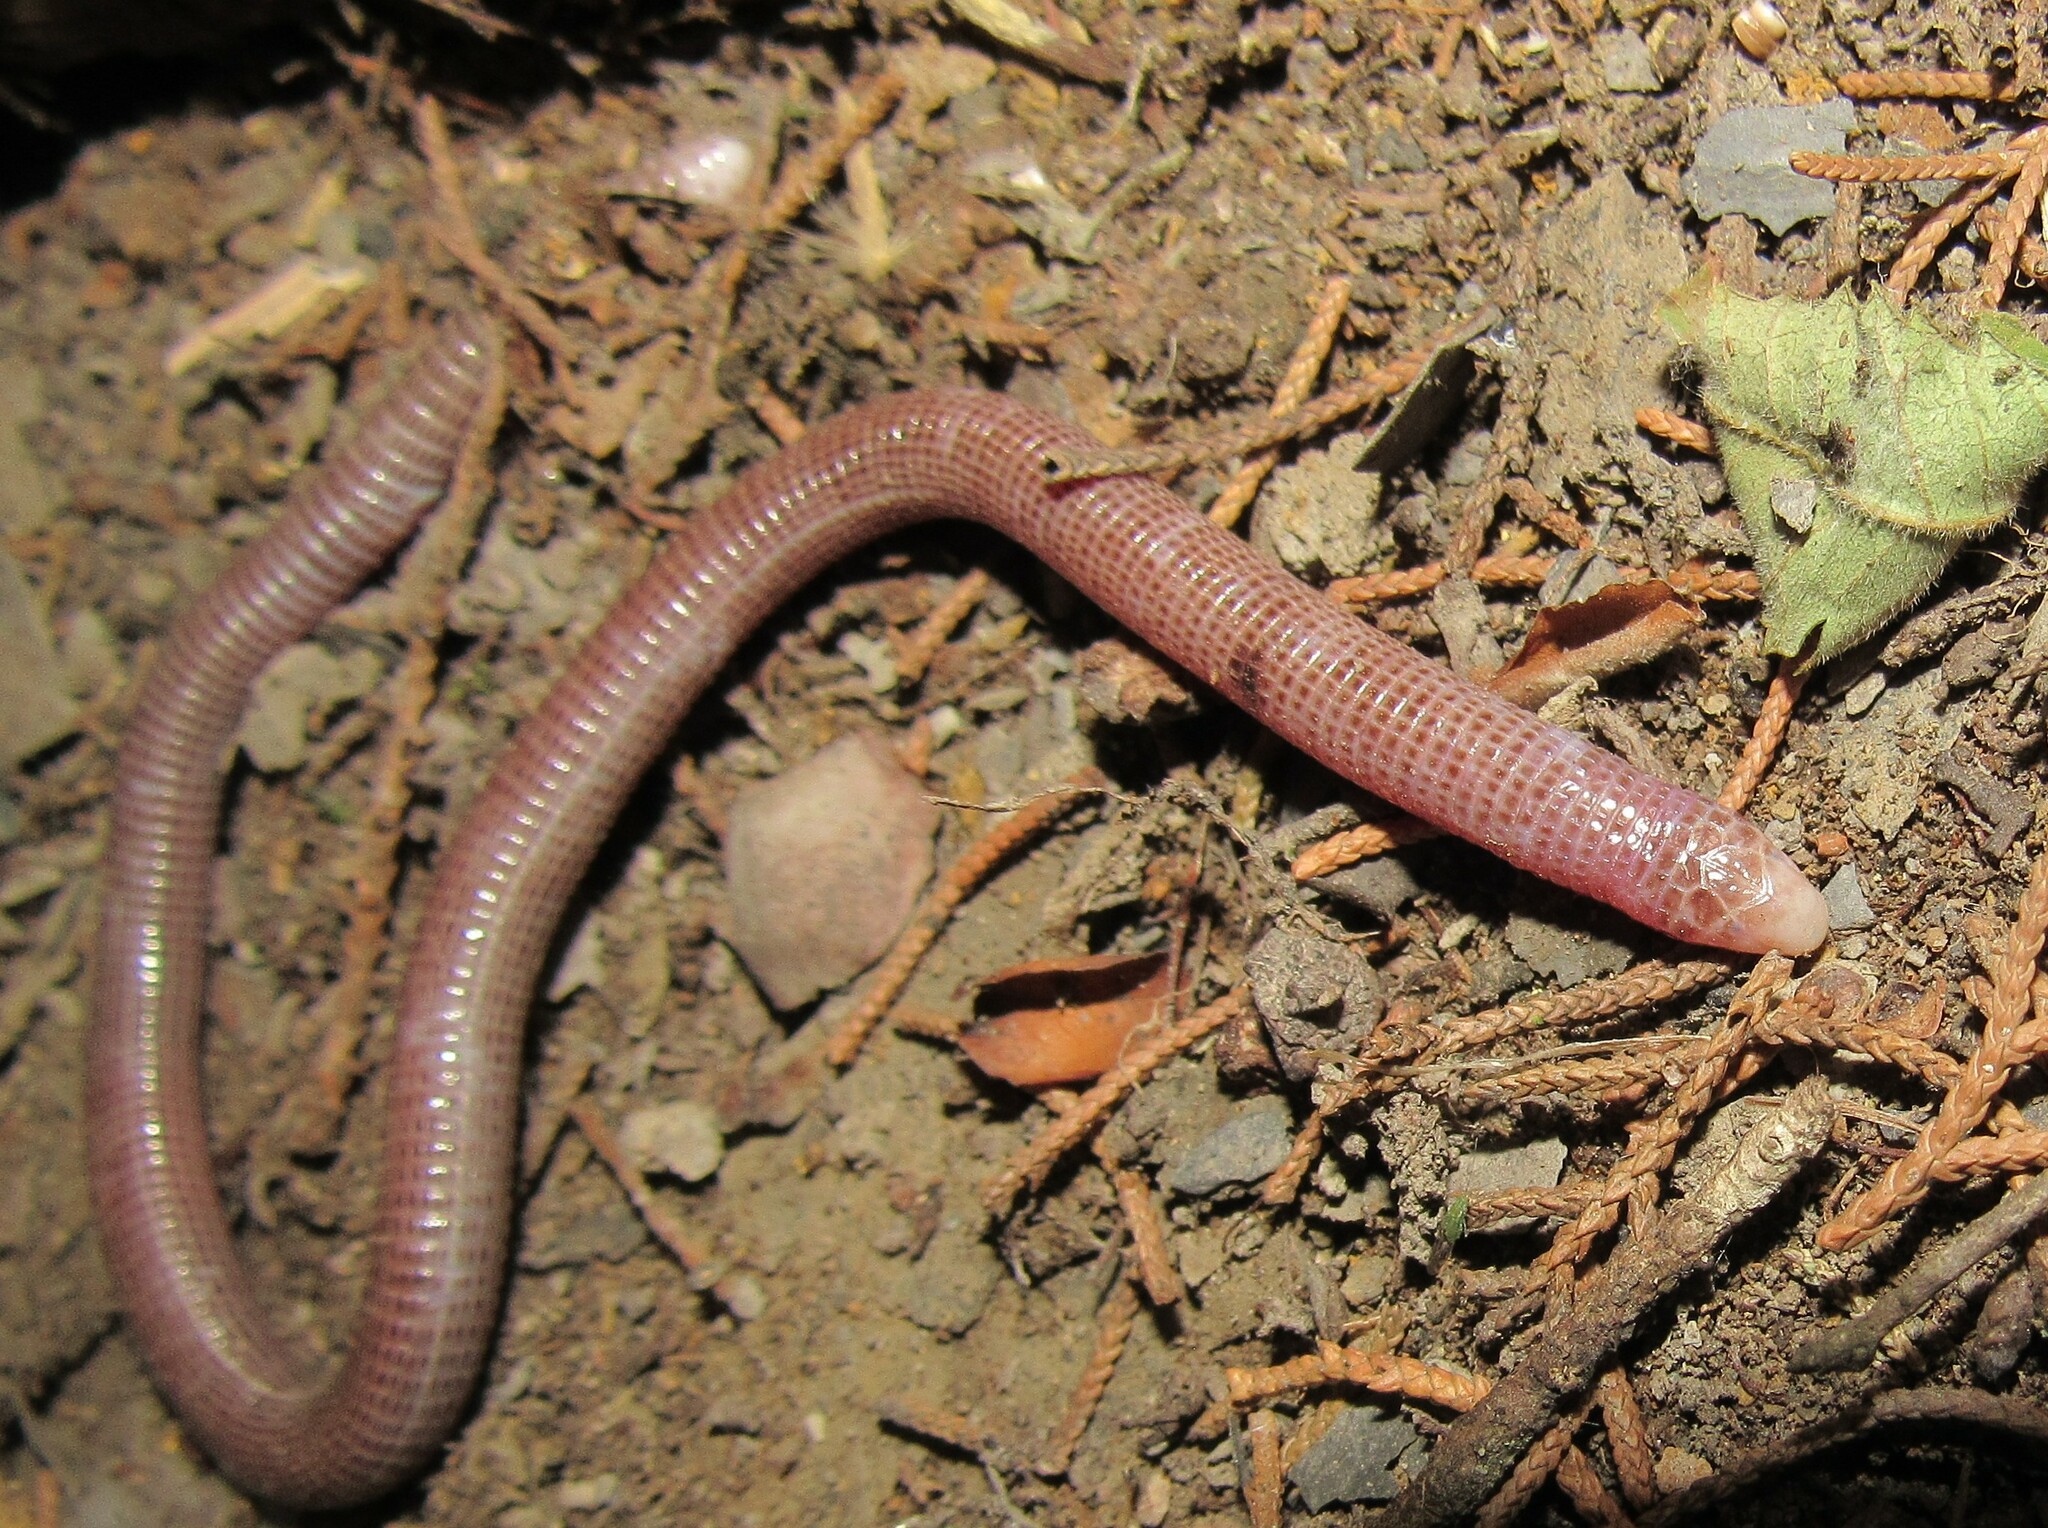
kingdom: Animalia
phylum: Chordata
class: Squamata
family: Amphisbaenidae
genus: Amphisbaena
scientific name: Amphisbaena darwinii
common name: Darwin's ringed worm lizard
